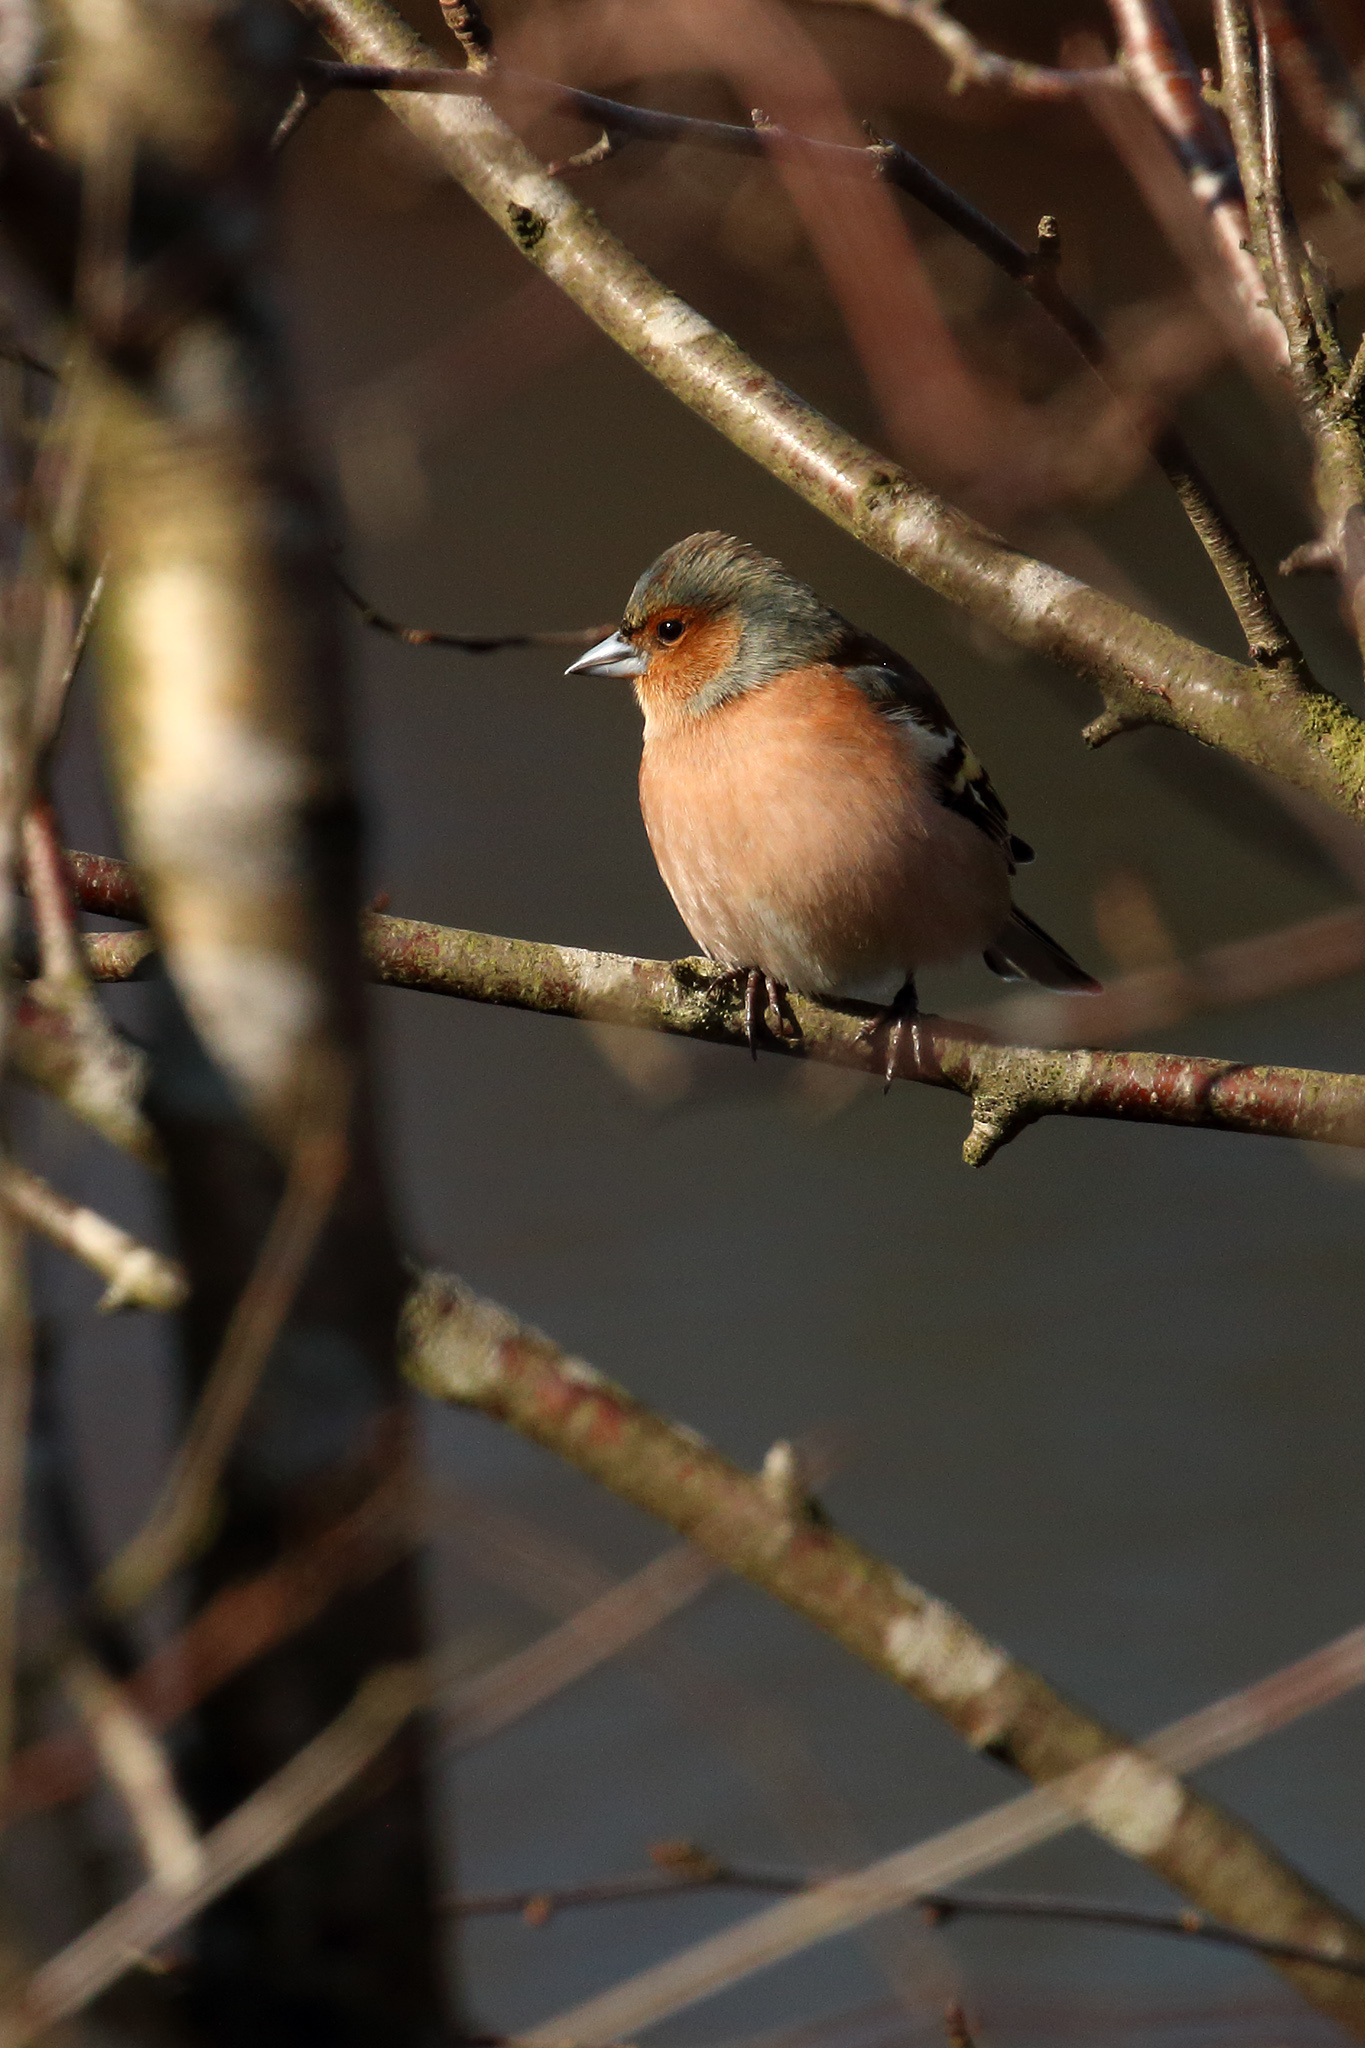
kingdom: Animalia
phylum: Chordata
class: Aves
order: Passeriformes
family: Fringillidae
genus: Fringilla
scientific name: Fringilla coelebs
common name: Common chaffinch
